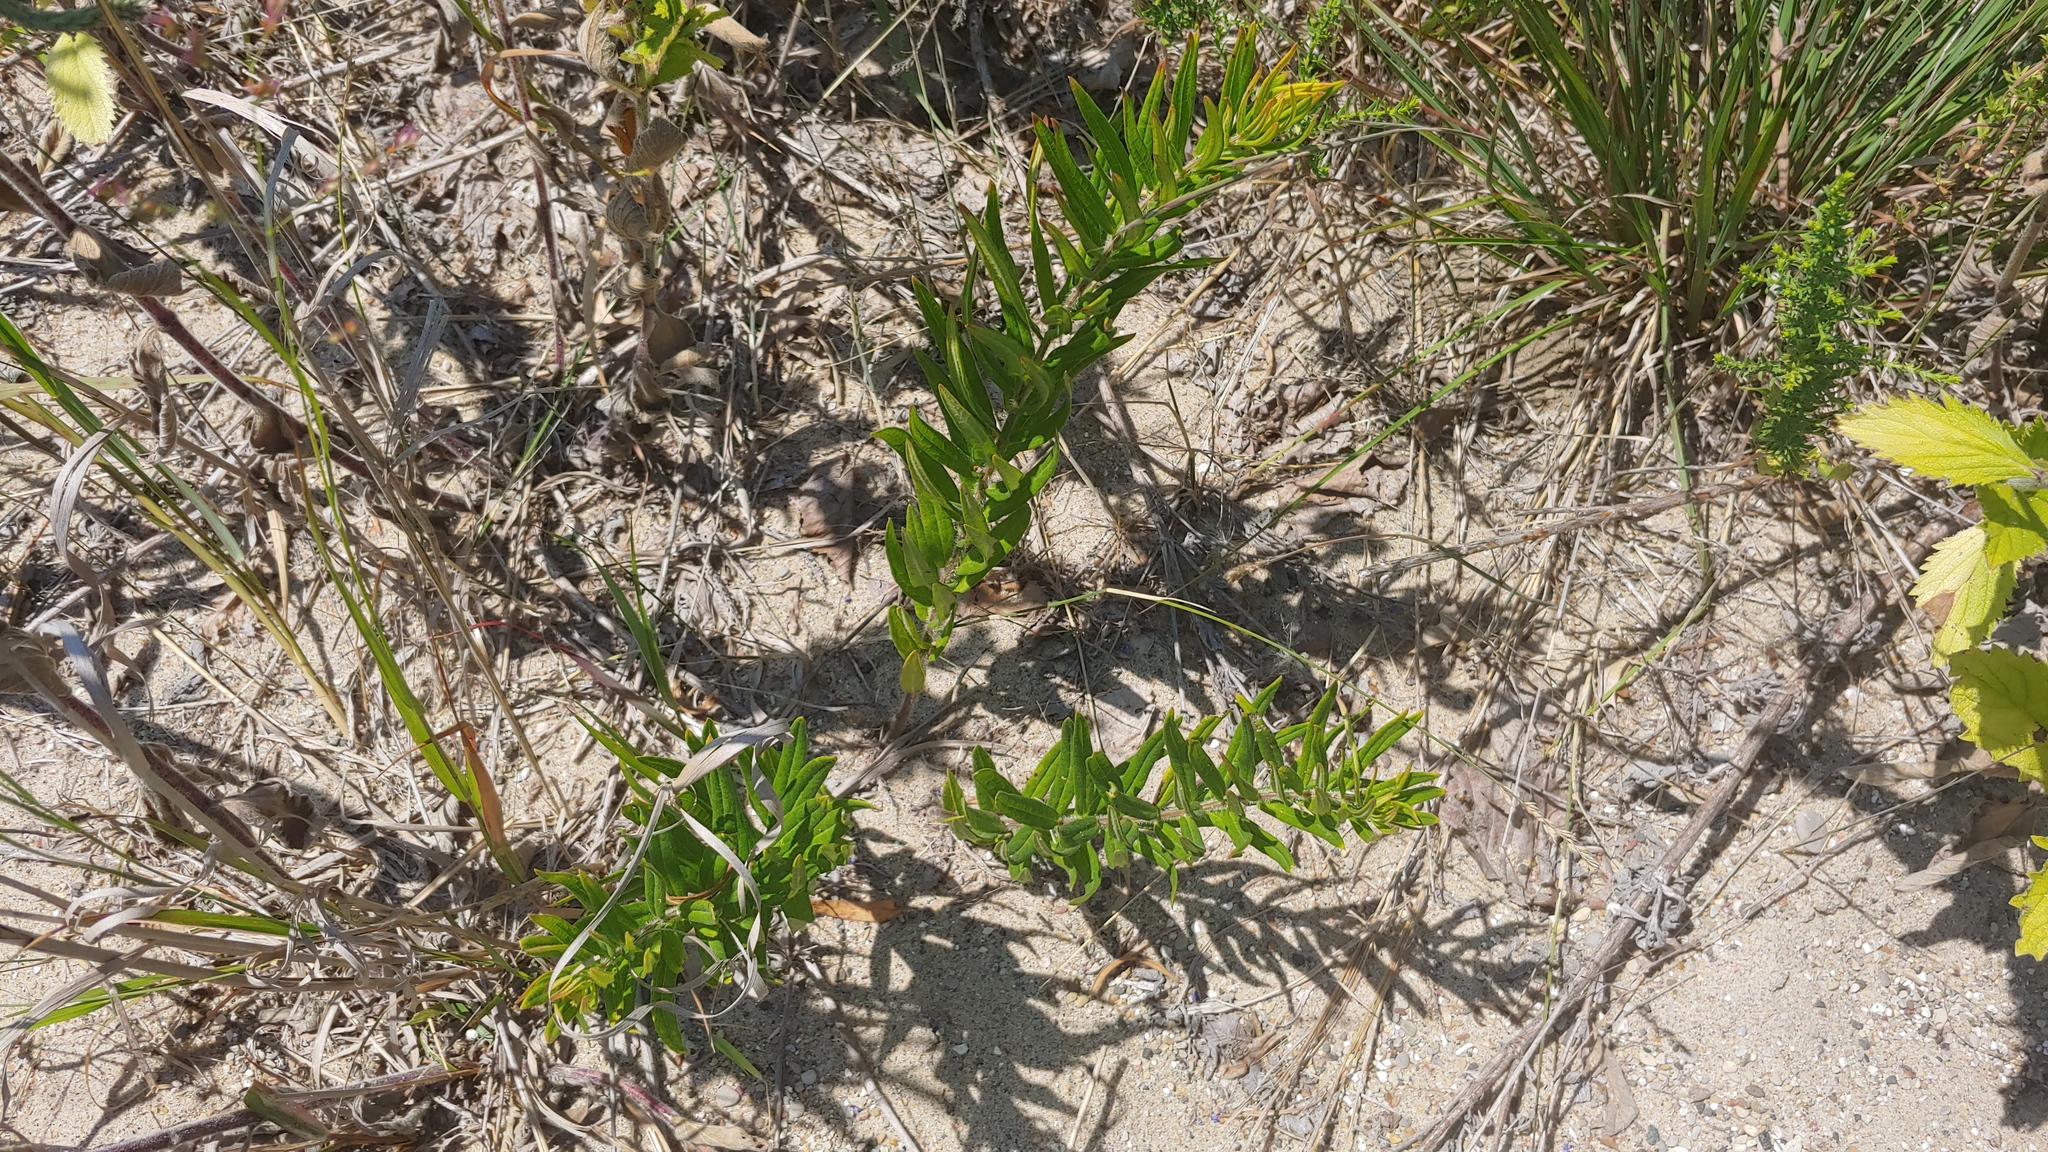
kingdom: Plantae
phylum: Tracheophyta
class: Magnoliopsida
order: Gentianales
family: Apocynaceae
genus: Asclepias
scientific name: Asclepias tuberosa
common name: Butterfly milkweed
